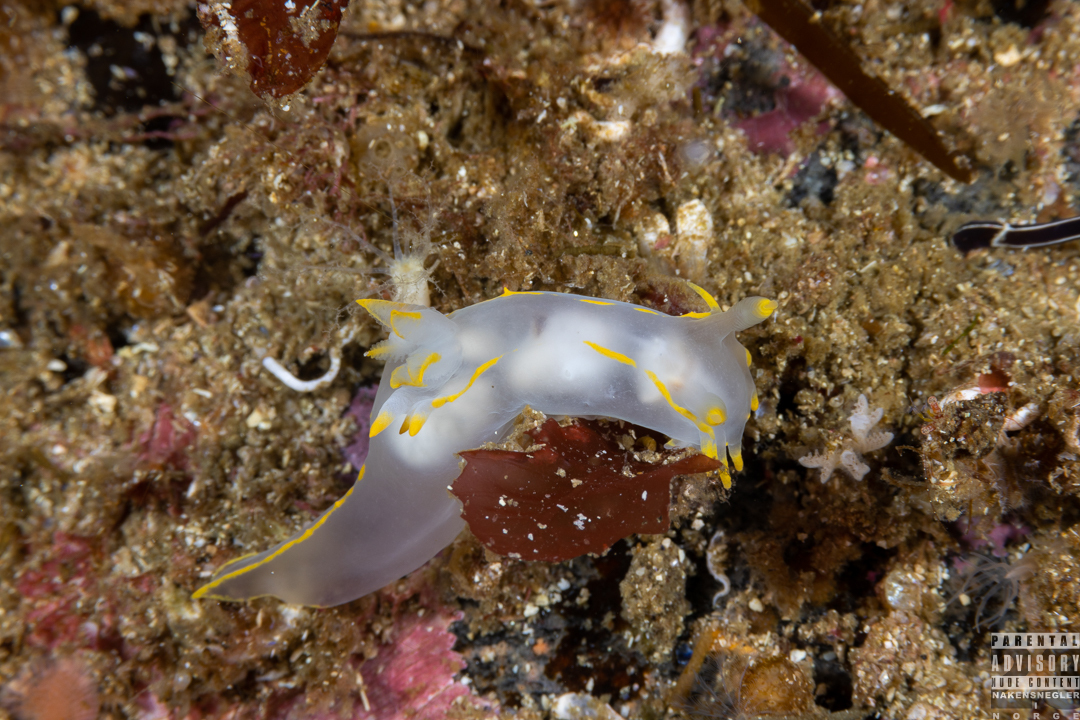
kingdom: Animalia
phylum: Mollusca
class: Gastropoda
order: Nudibranchia
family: Polyceridae
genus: Polycera
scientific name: Polycera faeroensis
